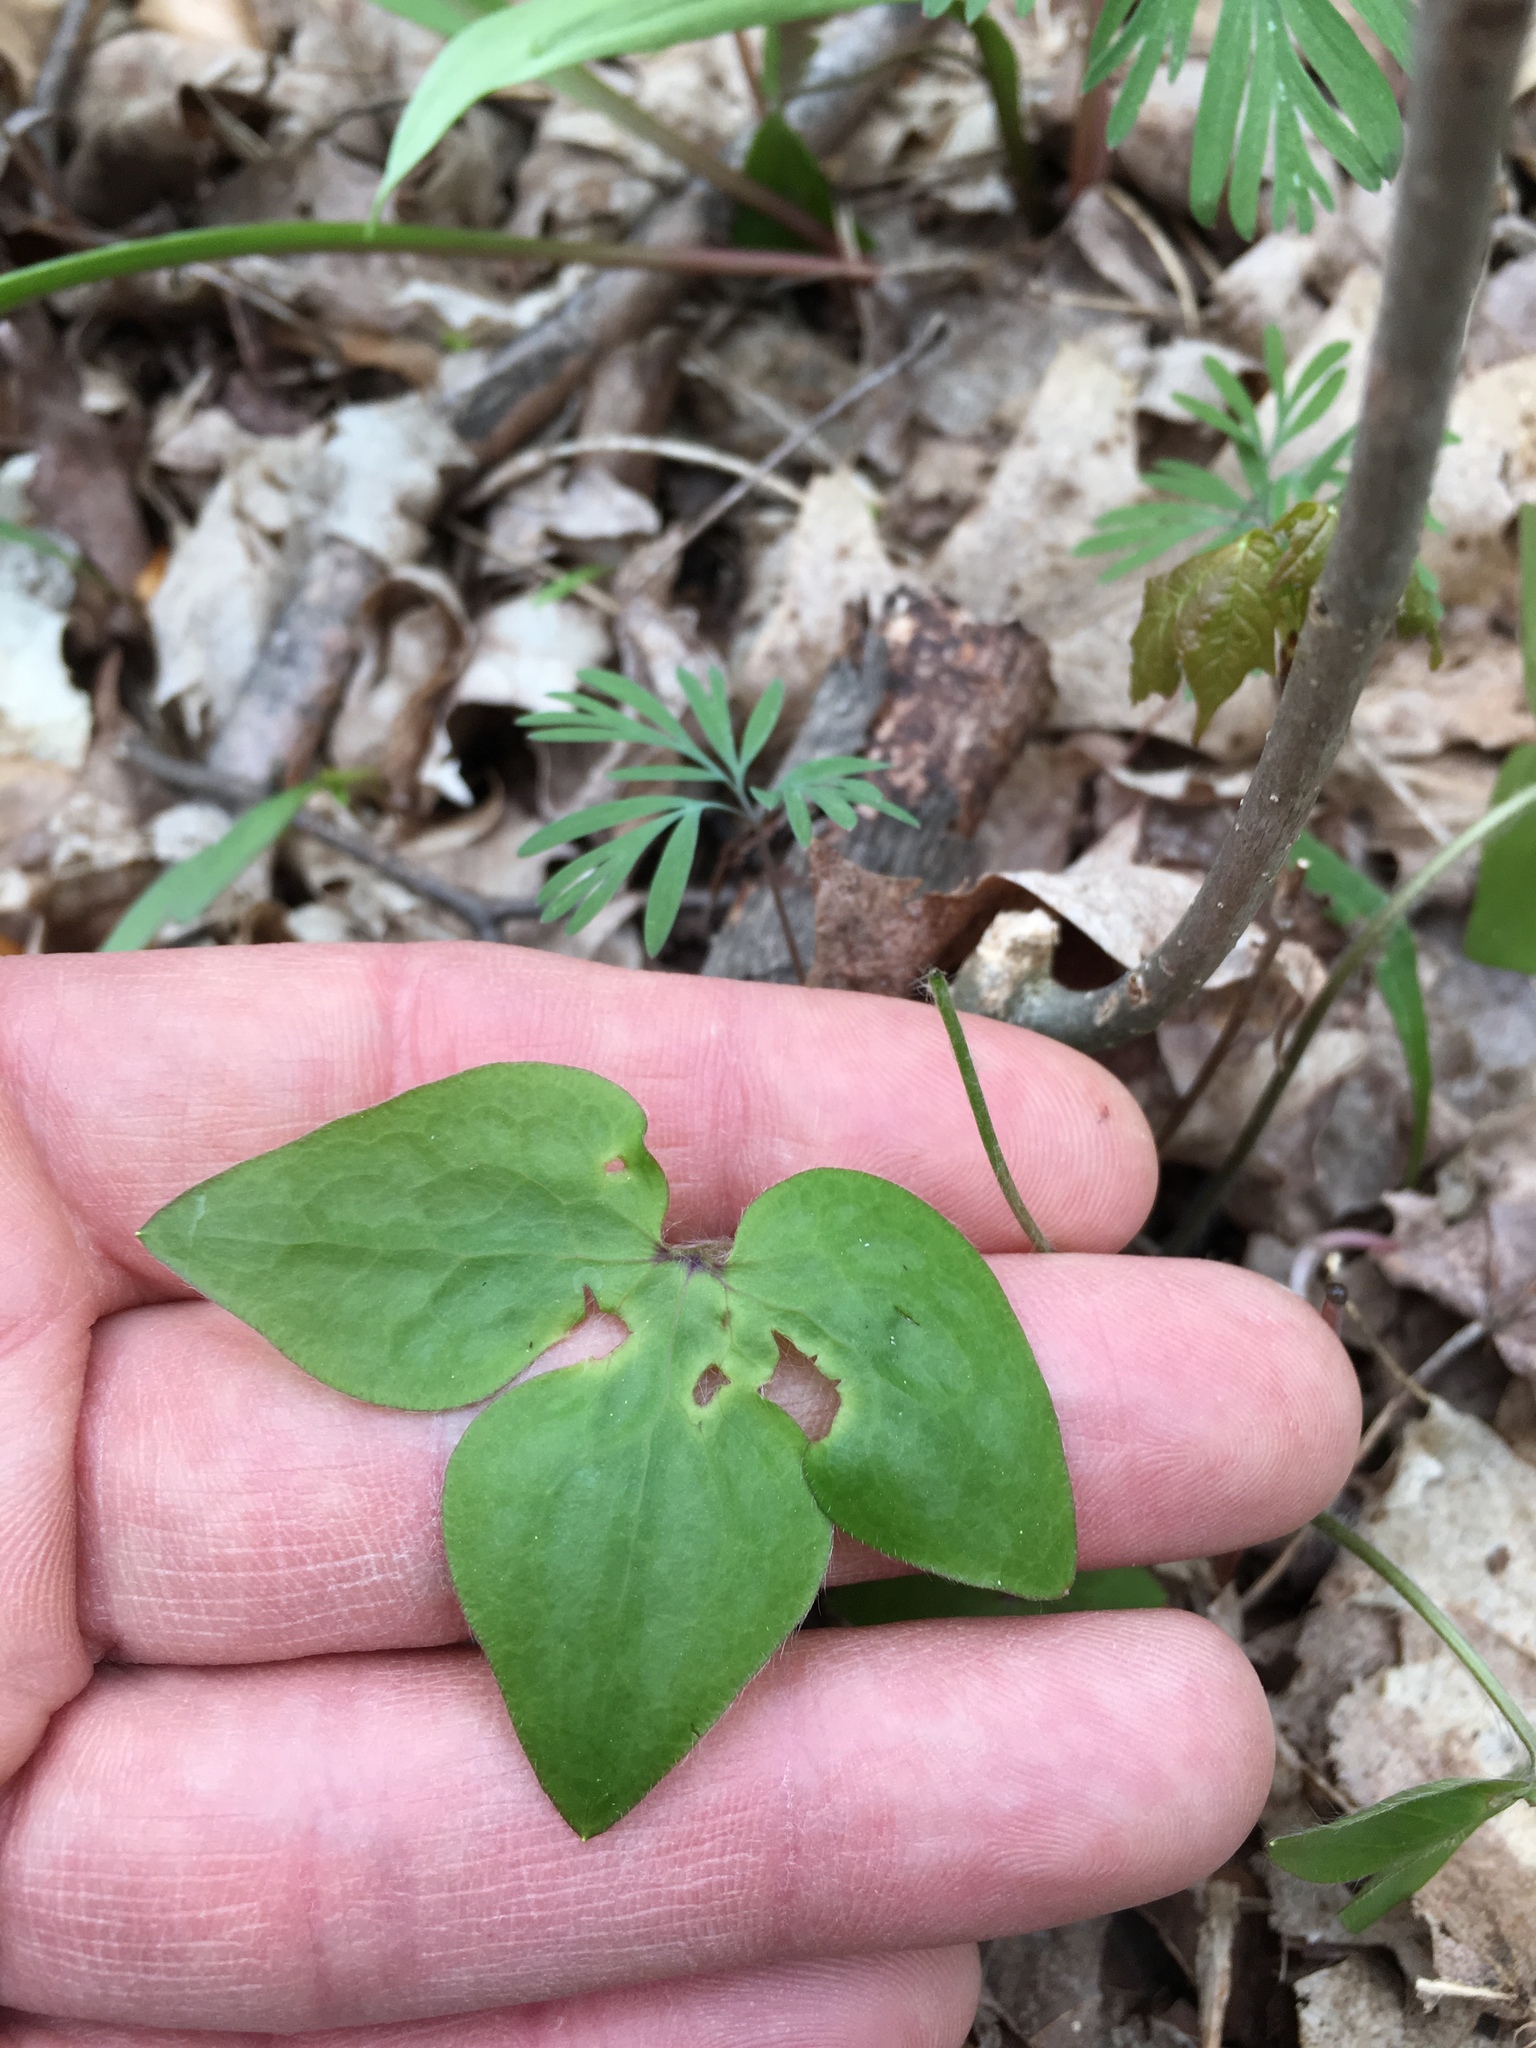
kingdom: Plantae
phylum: Tracheophyta
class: Magnoliopsida
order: Ranunculales
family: Ranunculaceae
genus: Hepatica
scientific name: Hepatica acutiloba
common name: Sharp-lobed hepatica
